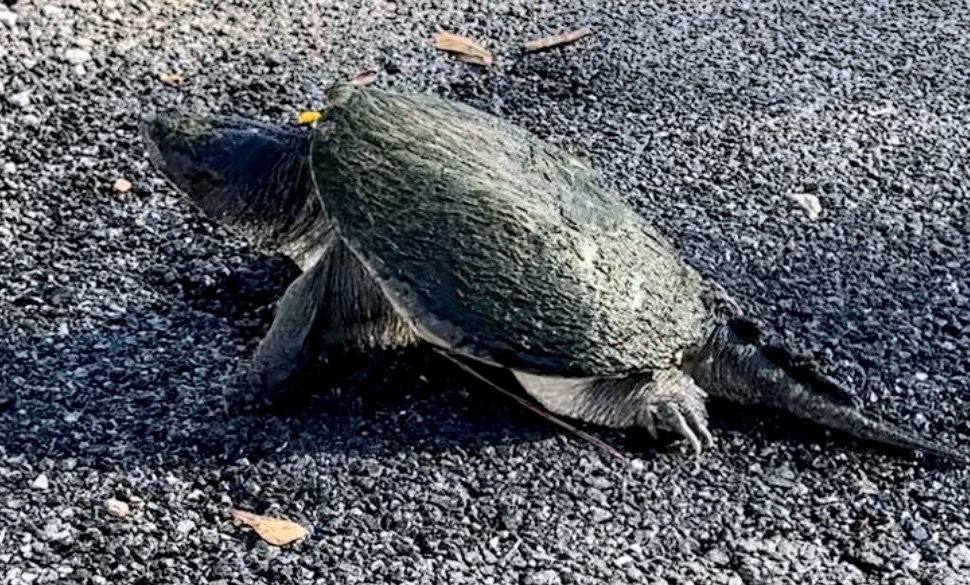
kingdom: Animalia
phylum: Chordata
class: Testudines
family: Chelydridae
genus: Chelydra
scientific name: Chelydra serpentina
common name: Common snapping turtle
